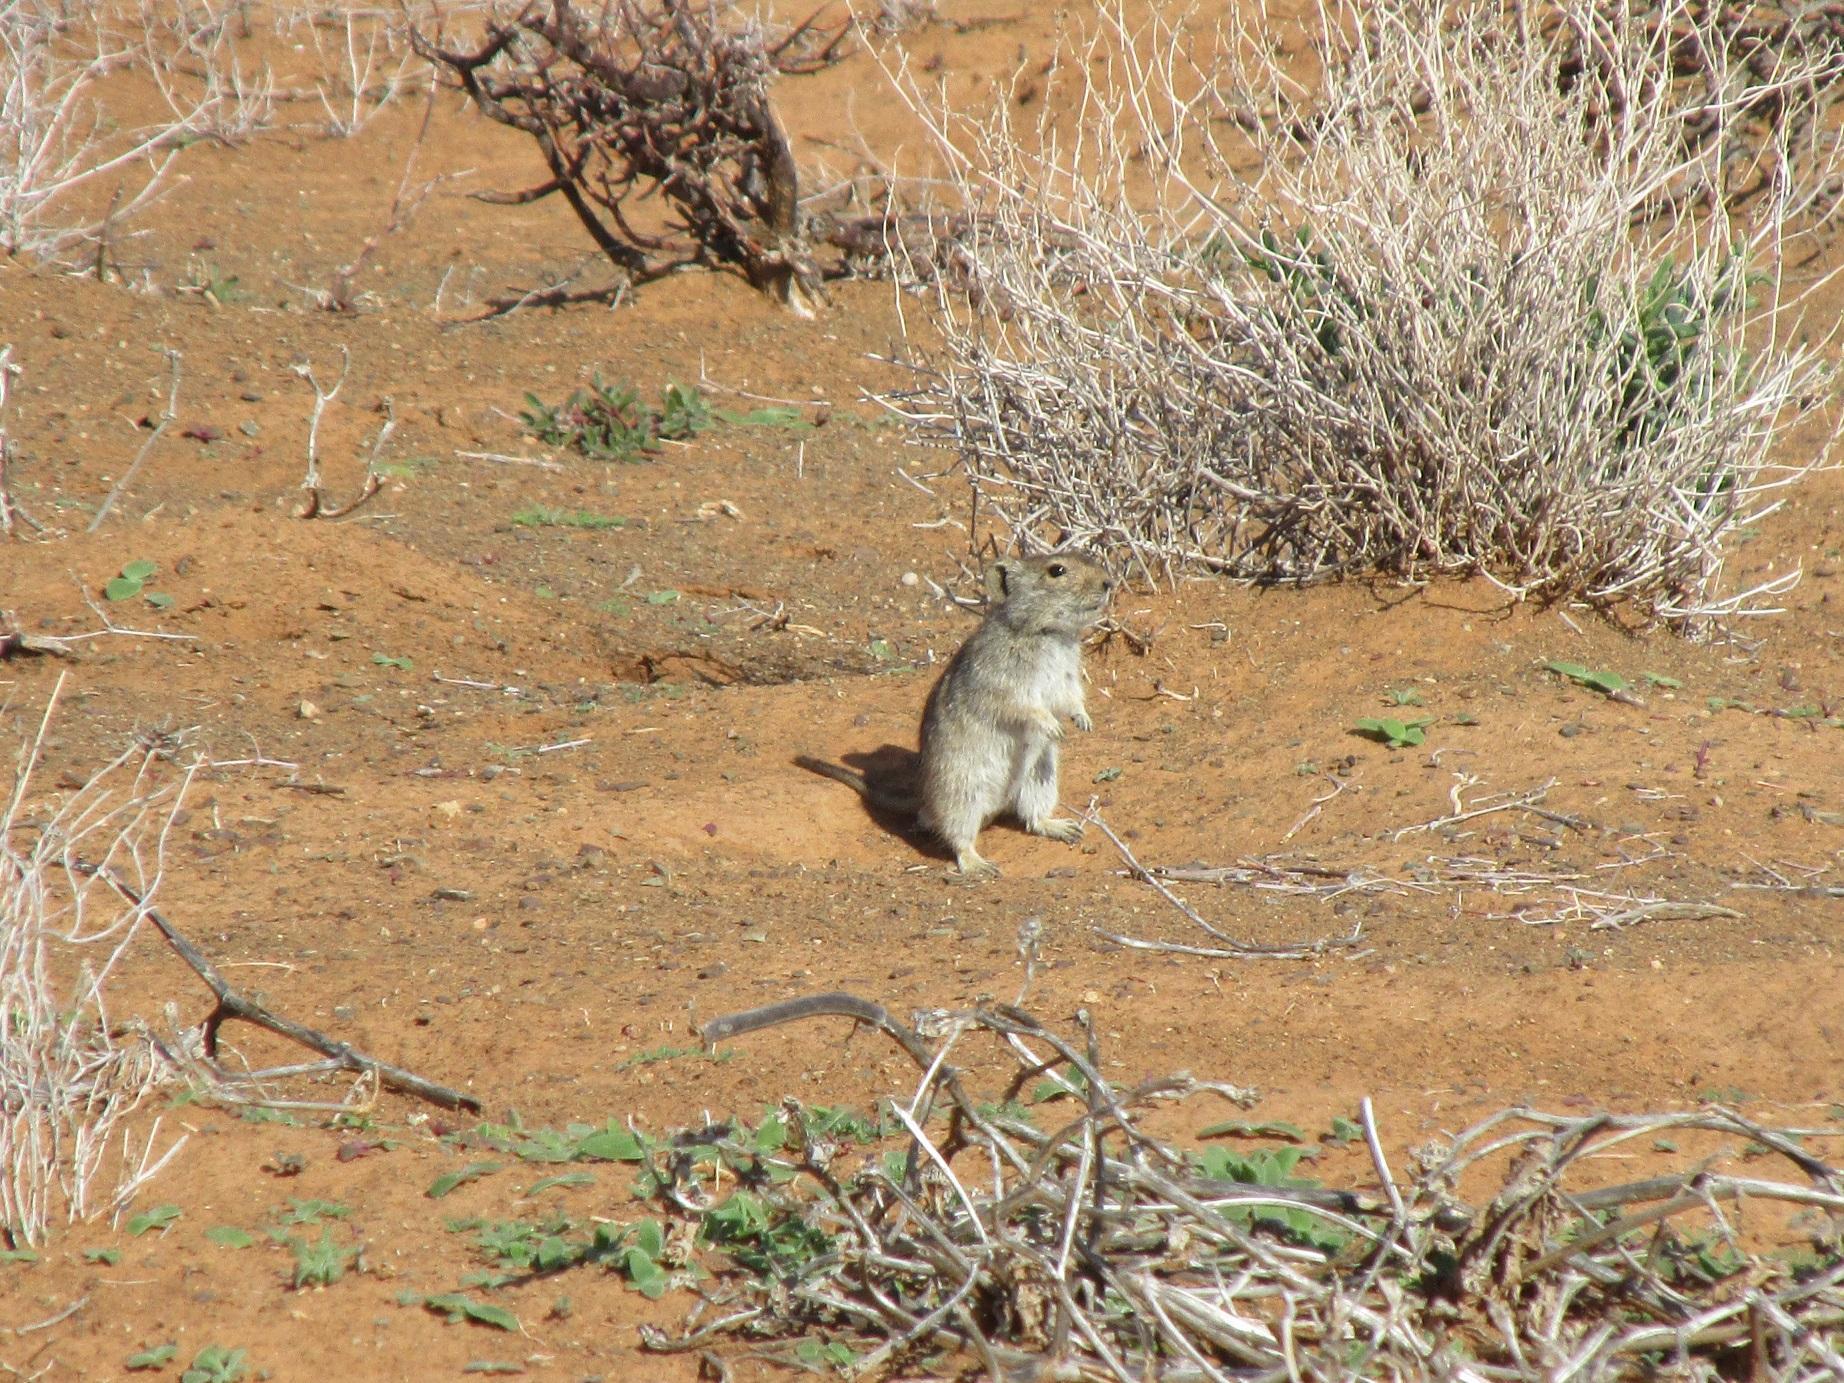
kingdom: Animalia
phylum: Chordata
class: Mammalia
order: Rodentia
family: Muridae
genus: Parotomys
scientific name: Parotomys brantsii
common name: Brants's whistling rat
